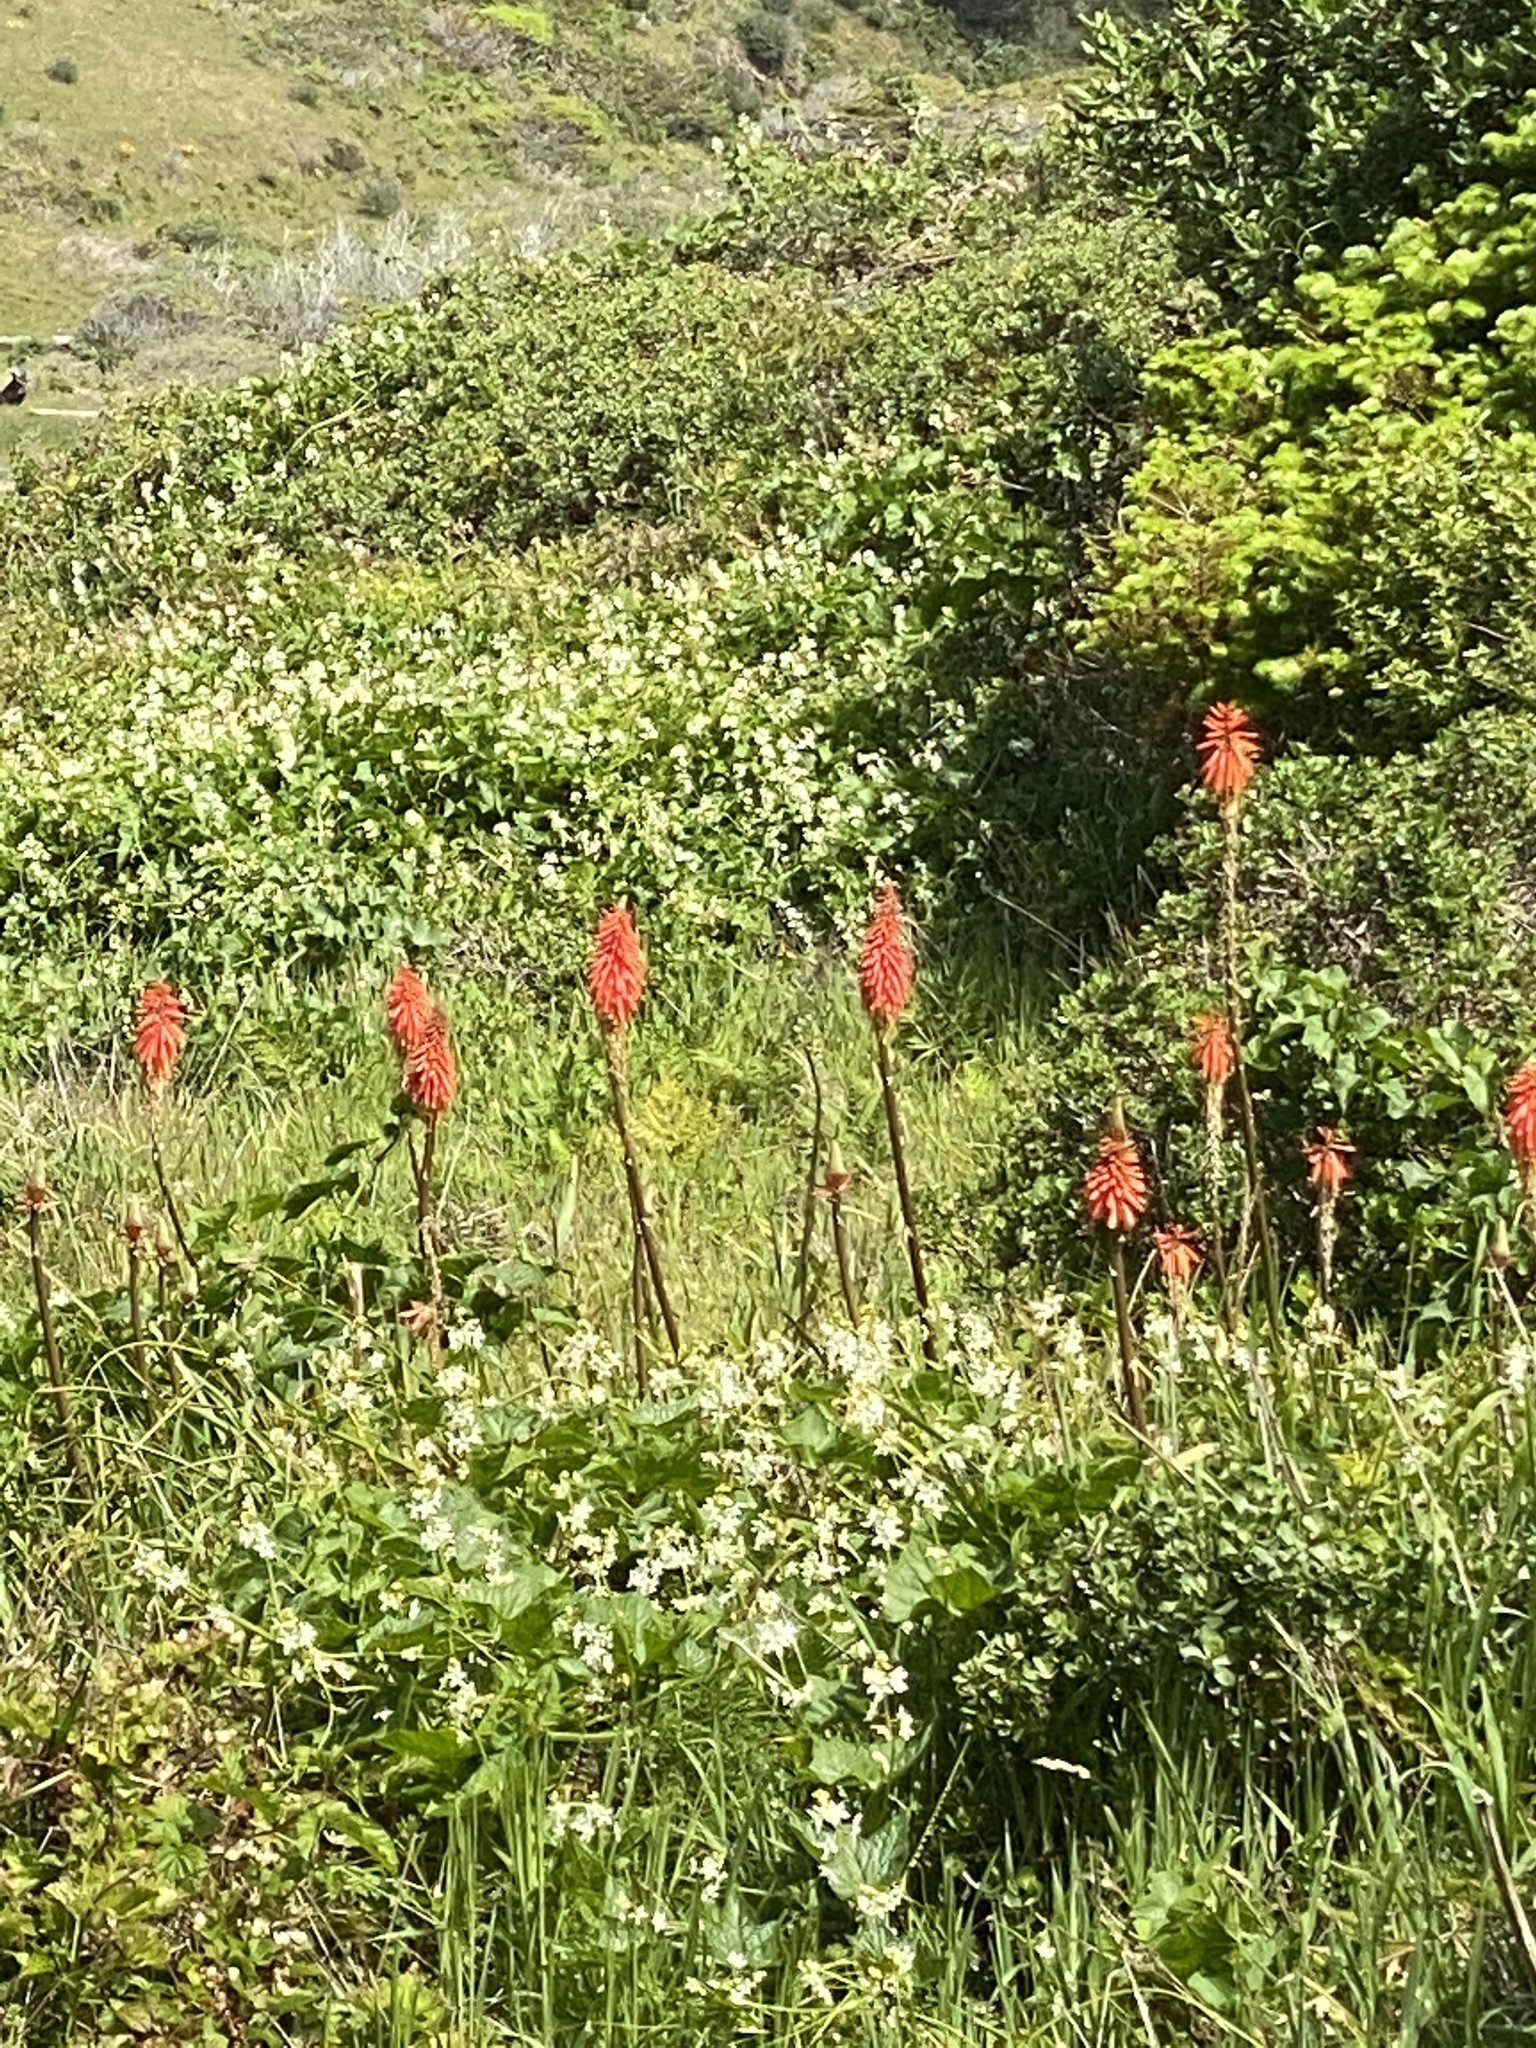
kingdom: Plantae
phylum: Tracheophyta
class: Liliopsida
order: Asparagales
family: Asphodelaceae
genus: Kniphofia
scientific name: Kniphofia uvaria
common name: Red-hot-poker
